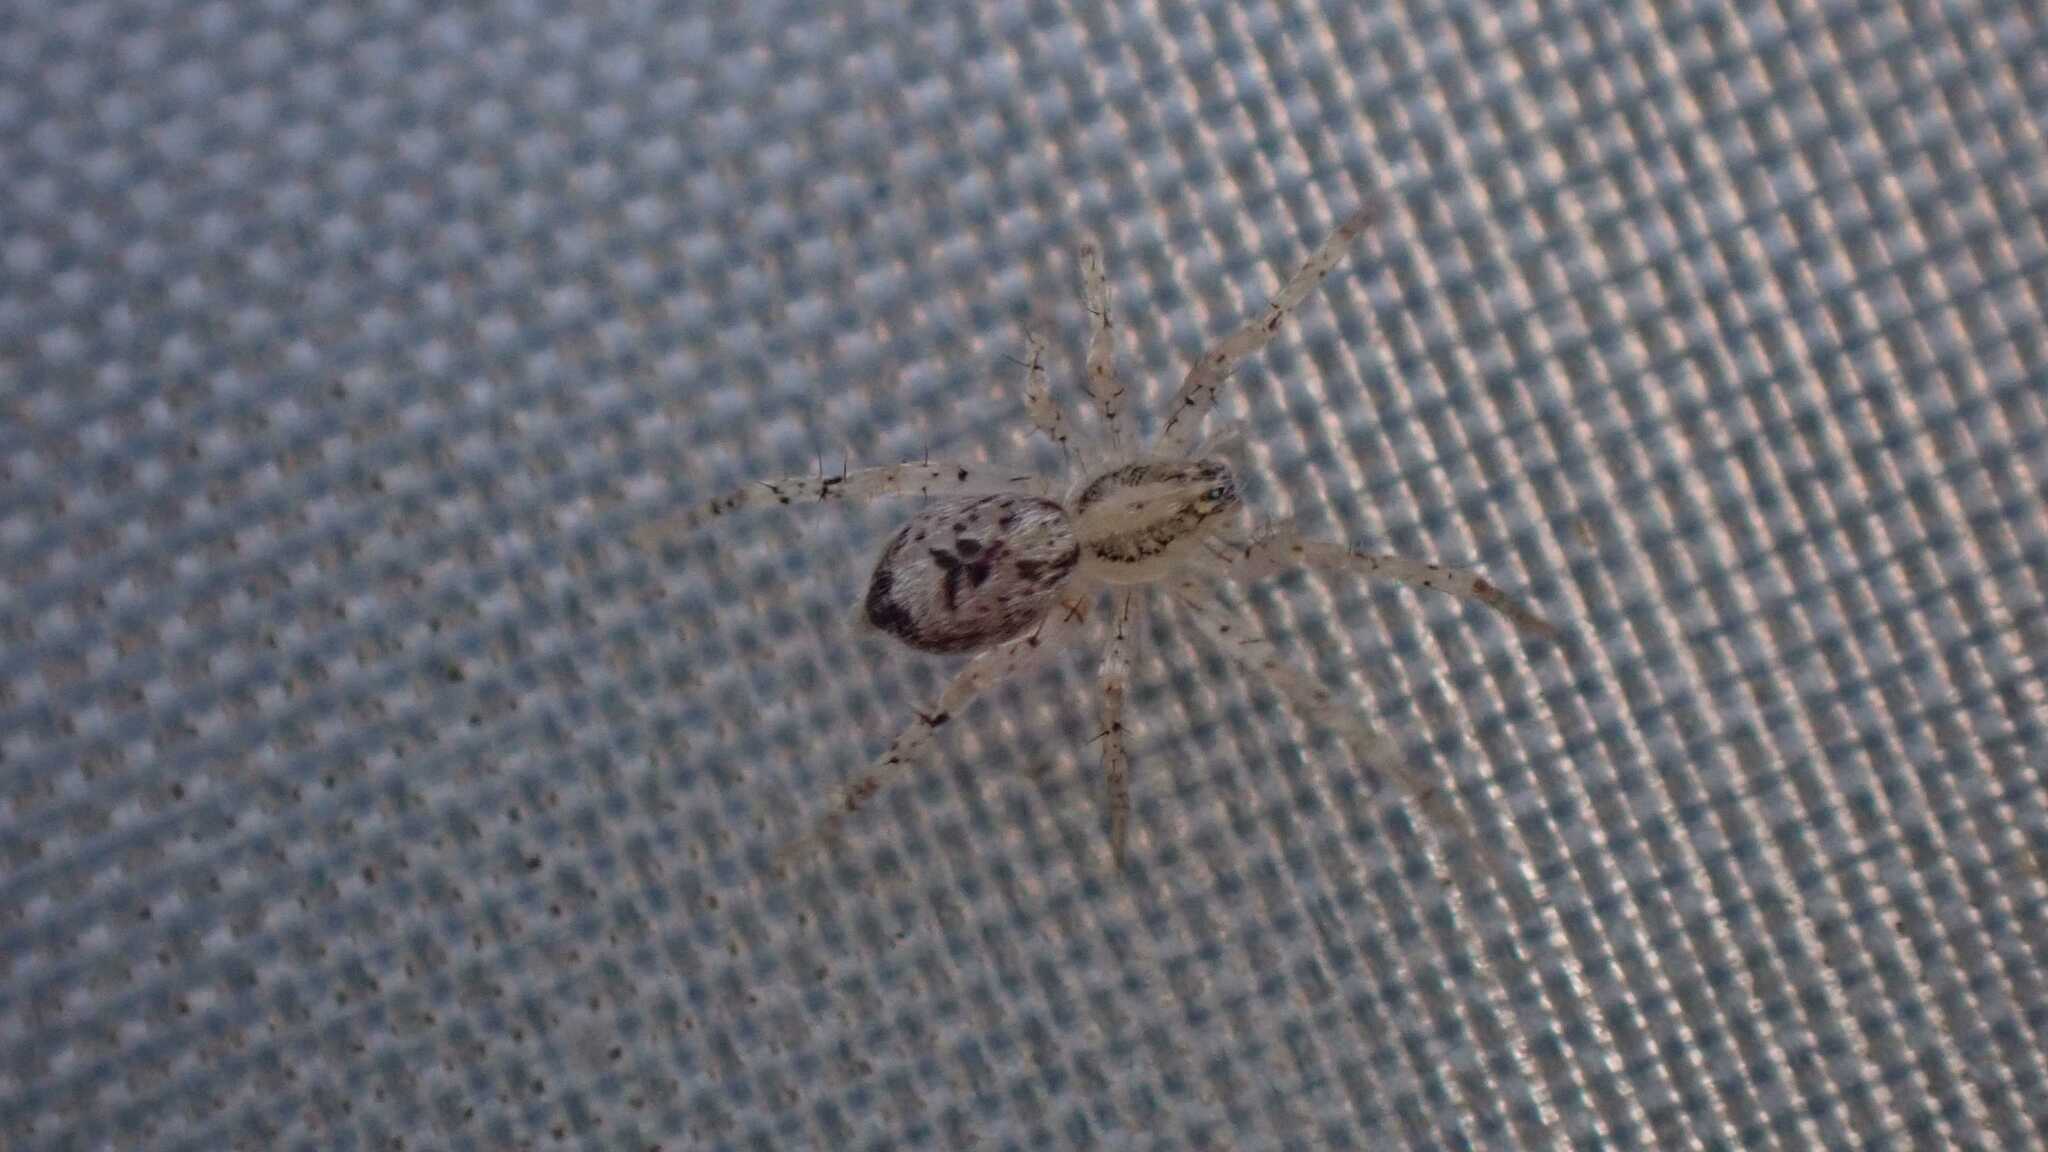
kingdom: Animalia
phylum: Arthropoda
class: Arachnida
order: Araneae
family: Anyphaenidae
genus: Anyphaena
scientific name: Anyphaena accentuata
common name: Buzzing spider
